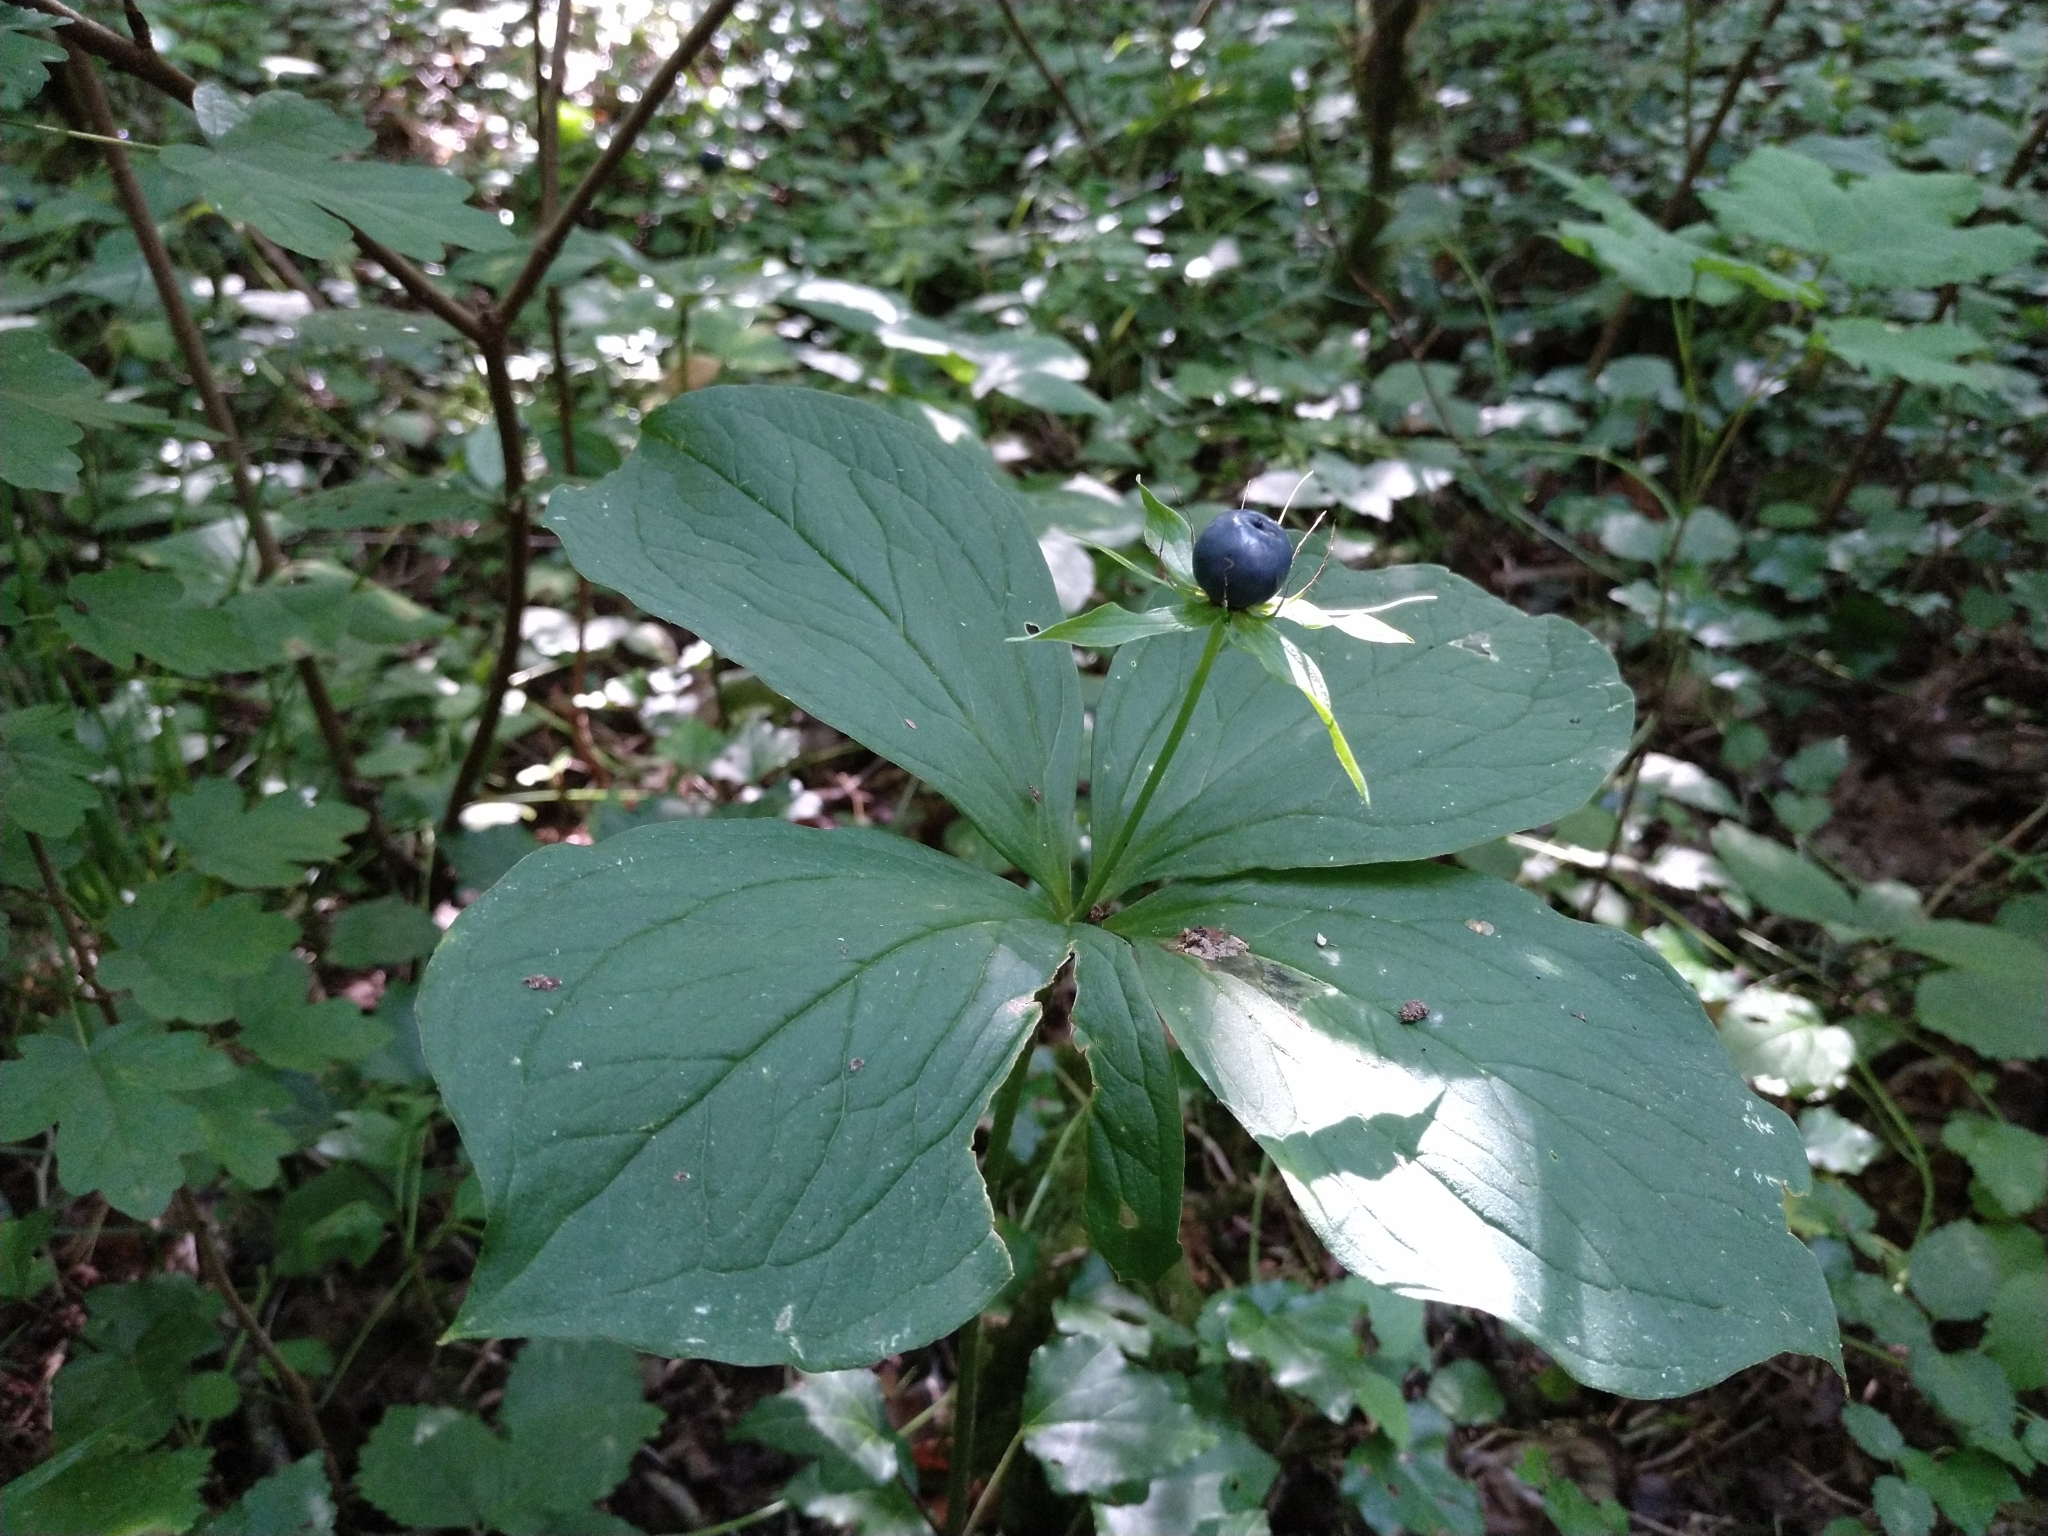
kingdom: Plantae
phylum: Tracheophyta
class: Liliopsida
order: Liliales
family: Melanthiaceae
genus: Paris
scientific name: Paris quadrifolia
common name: Herb-paris
